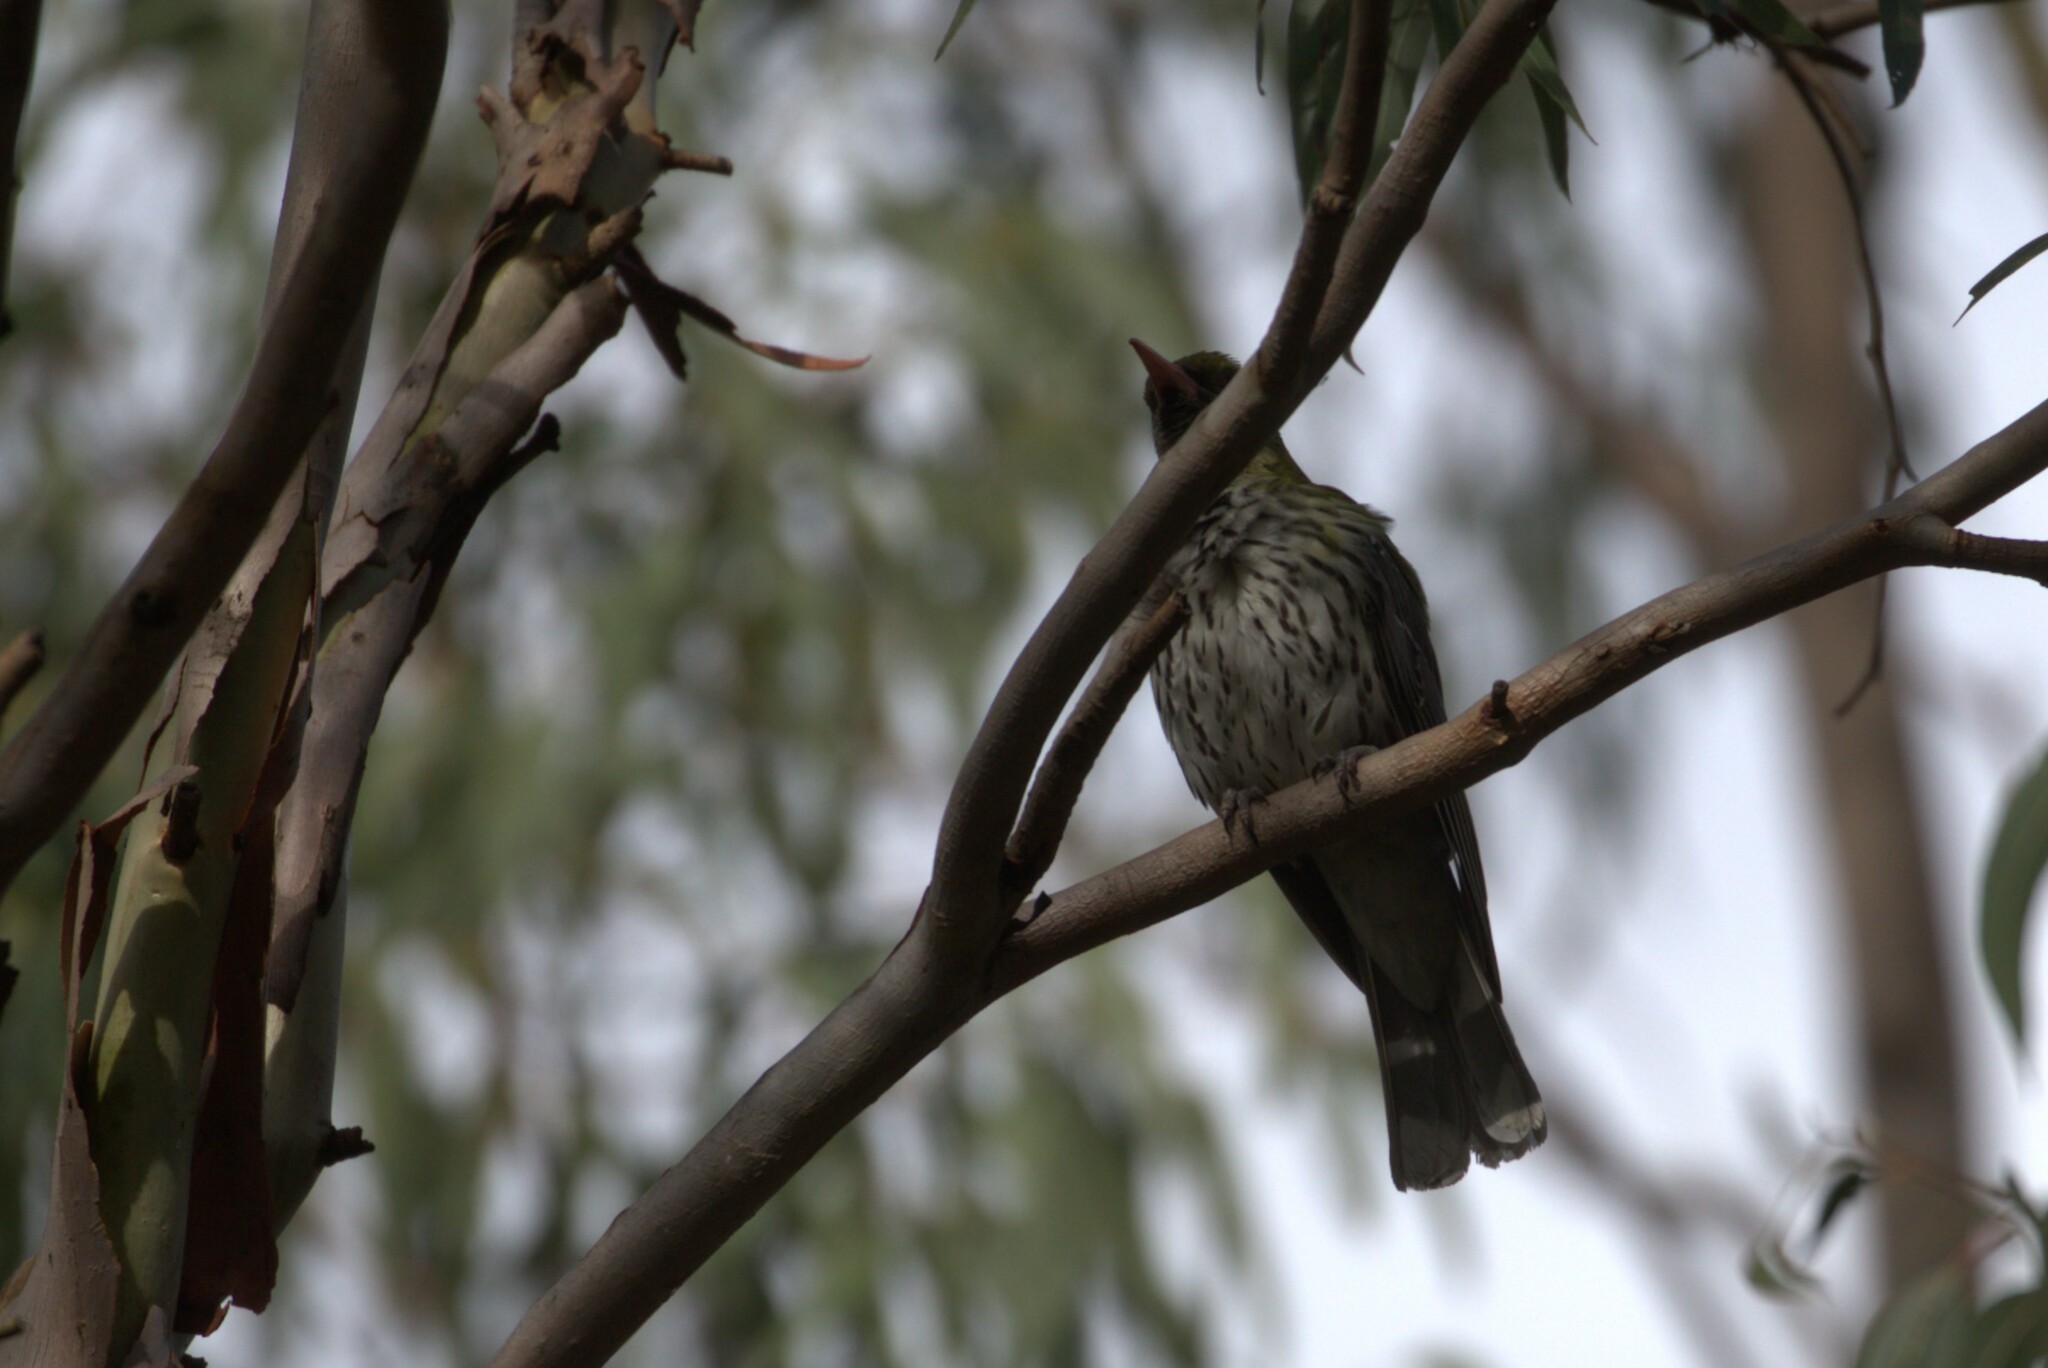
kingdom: Animalia
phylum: Chordata
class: Aves
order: Passeriformes
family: Oriolidae
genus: Oriolus
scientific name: Oriolus sagittatus
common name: Olive-backed oriole
